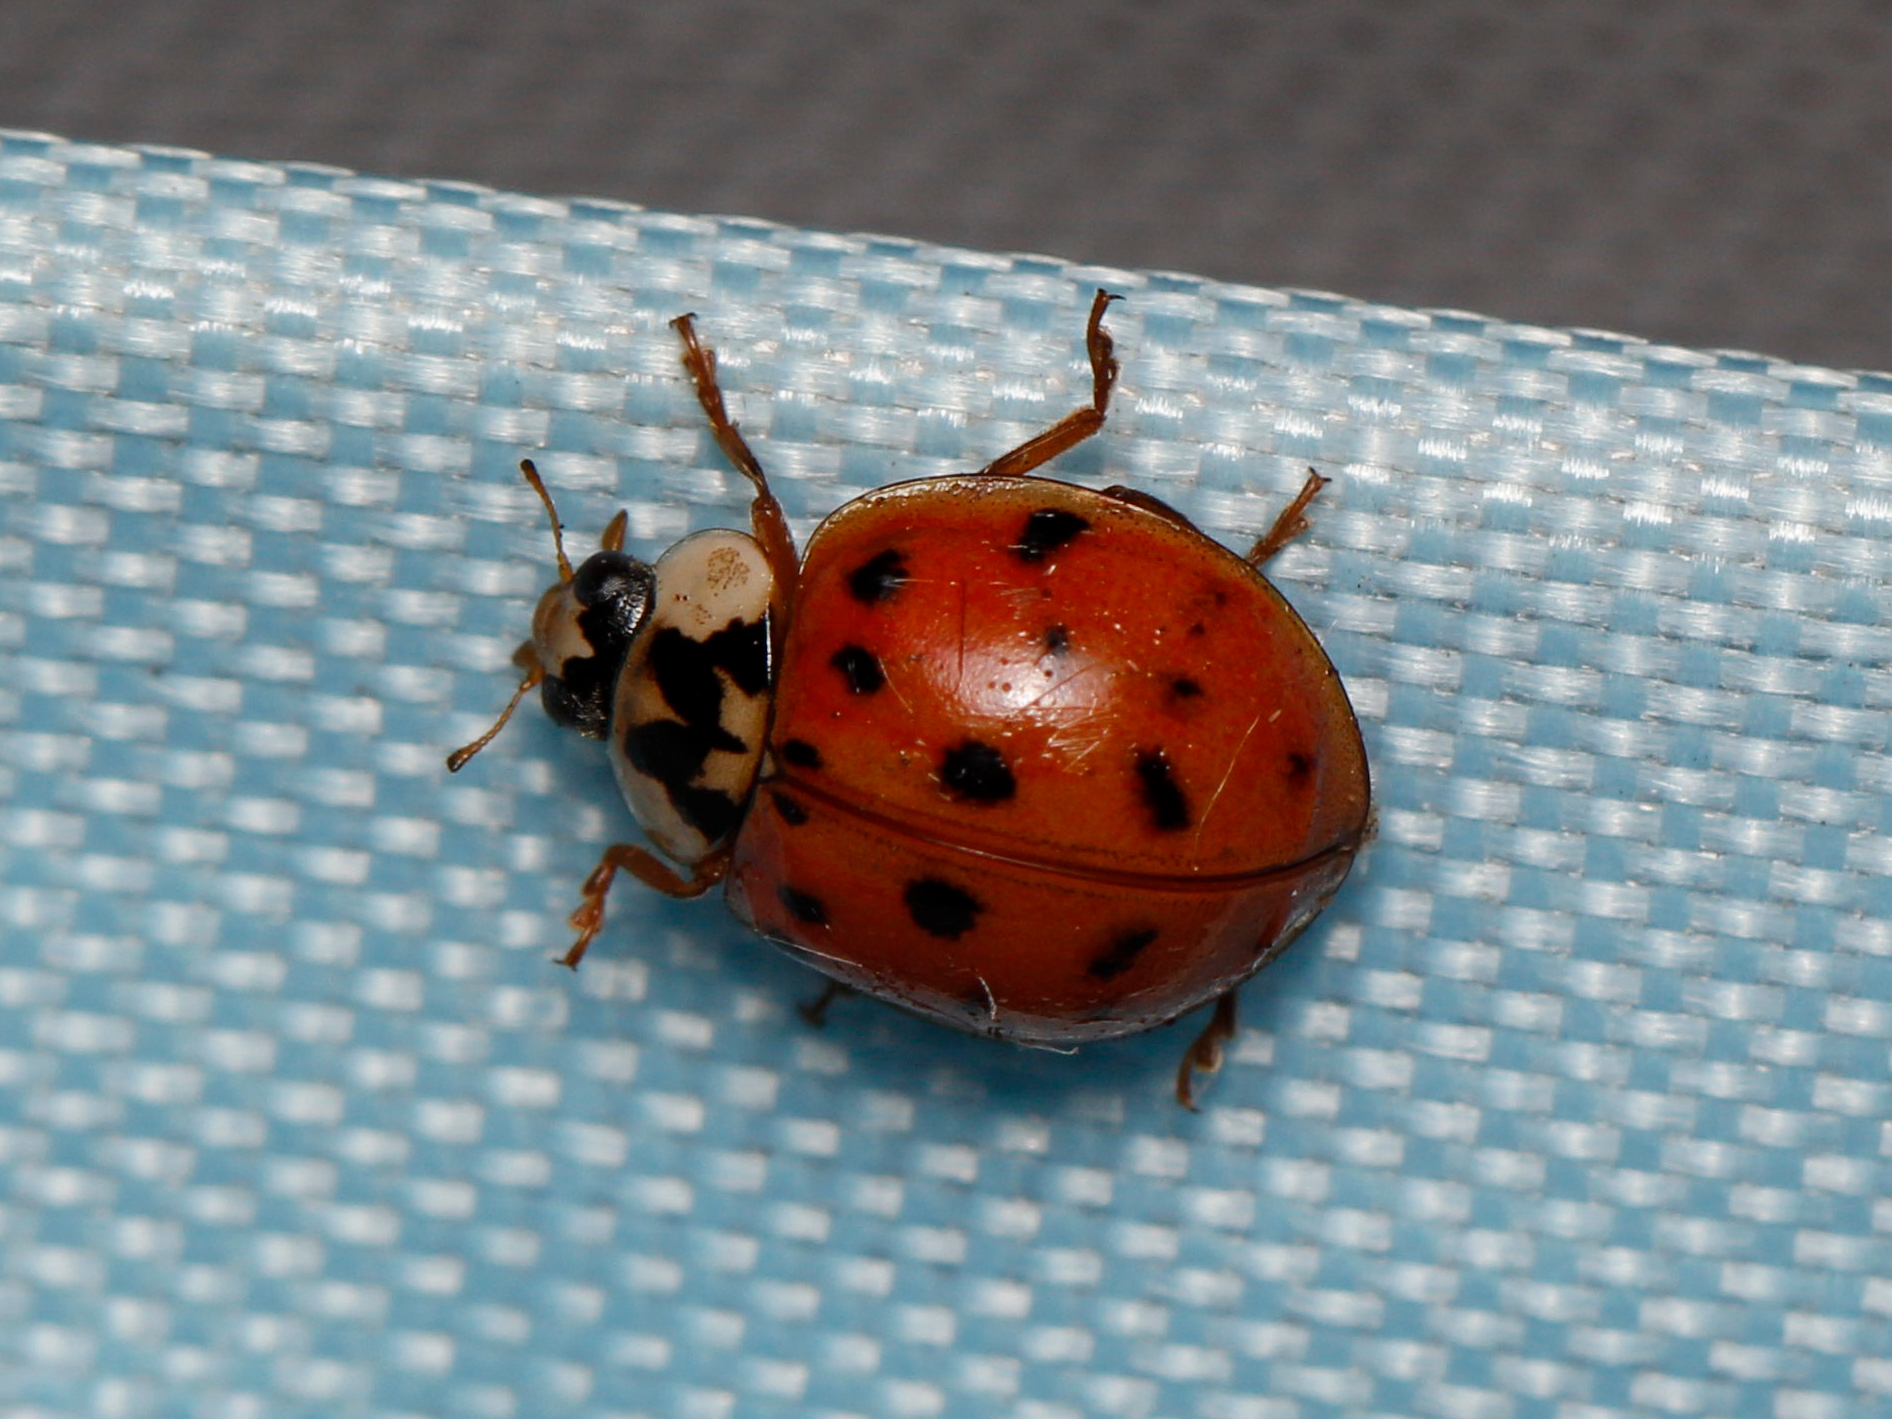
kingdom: Animalia
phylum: Arthropoda
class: Insecta
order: Coleoptera
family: Coccinellidae
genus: Harmonia
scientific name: Harmonia axyridis
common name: Harlequin ladybird
